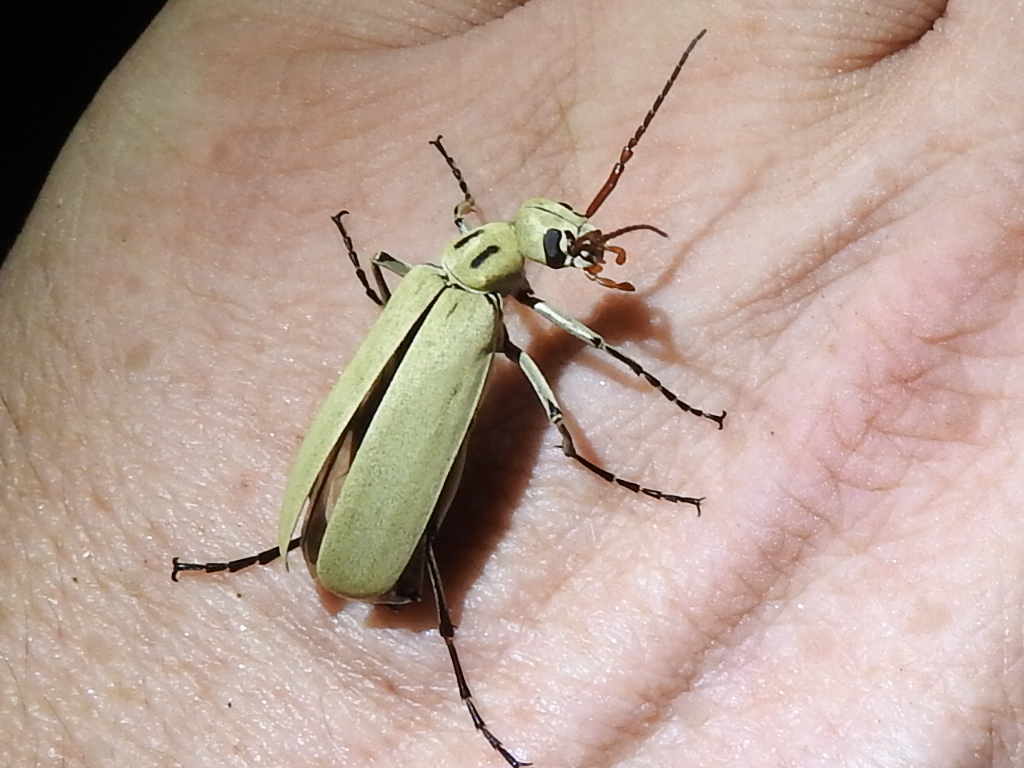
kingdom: Animalia
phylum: Arthropoda
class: Insecta
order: Coleoptera
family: Meloidae
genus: Epicauta
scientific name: Epicauta albida
